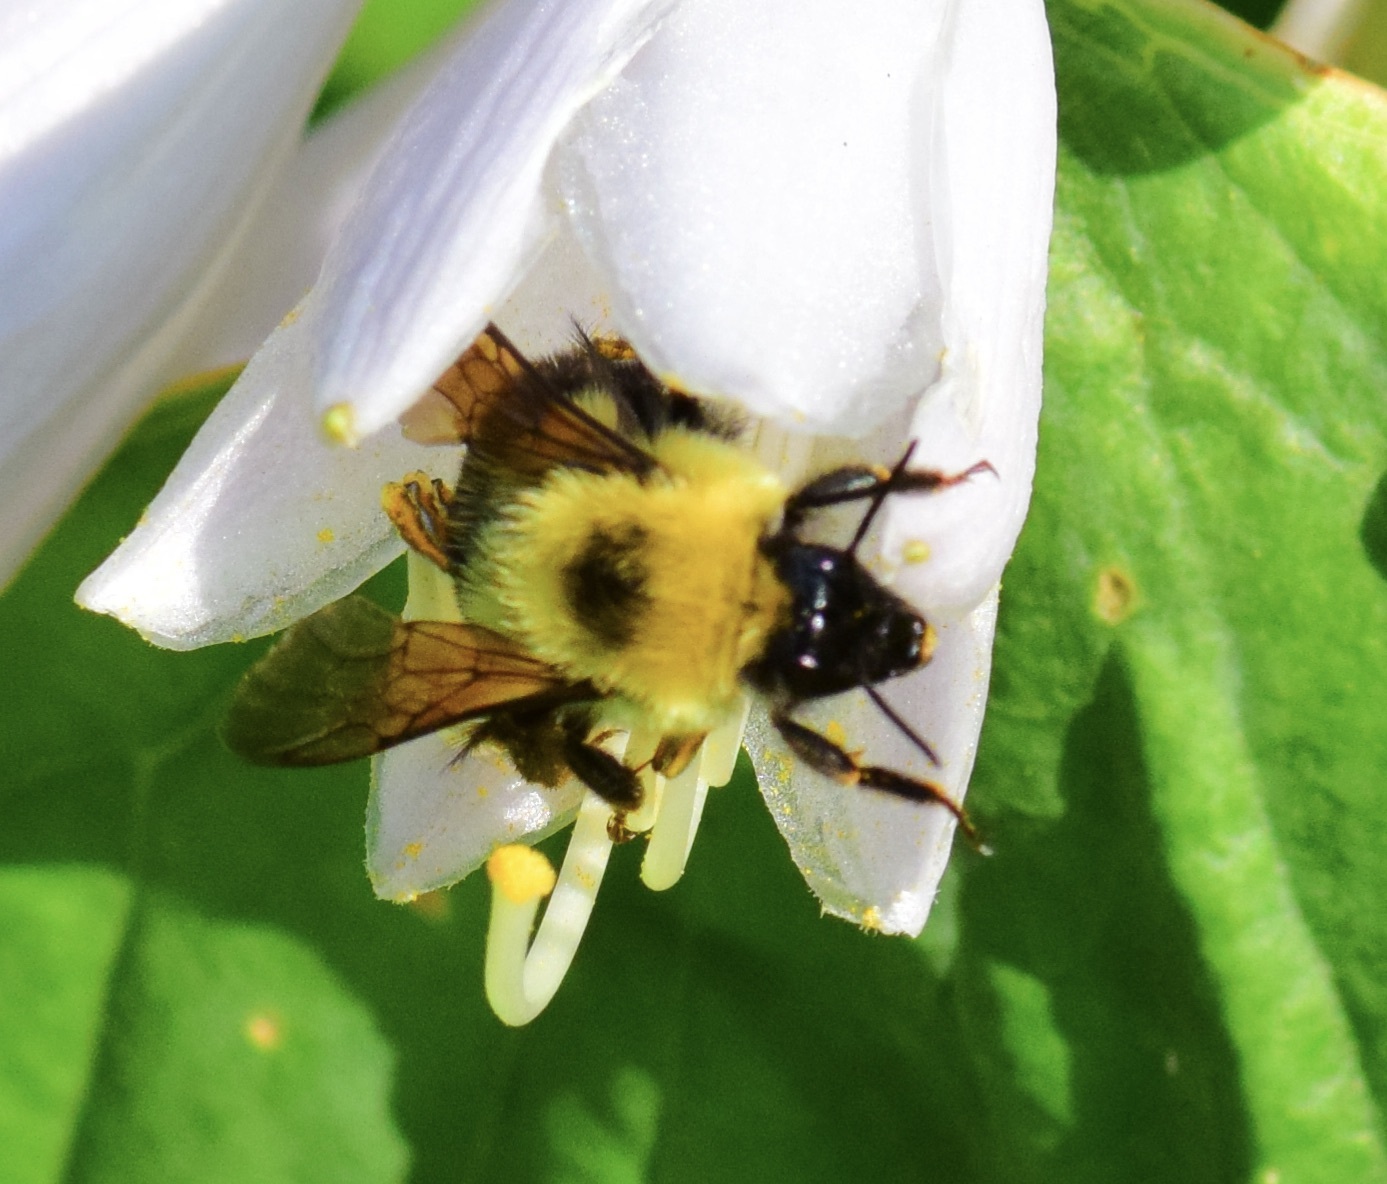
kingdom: Animalia
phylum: Arthropoda
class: Insecta
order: Hymenoptera
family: Apidae
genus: Bombus
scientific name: Bombus bimaculatus
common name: Two-spotted bumble bee
